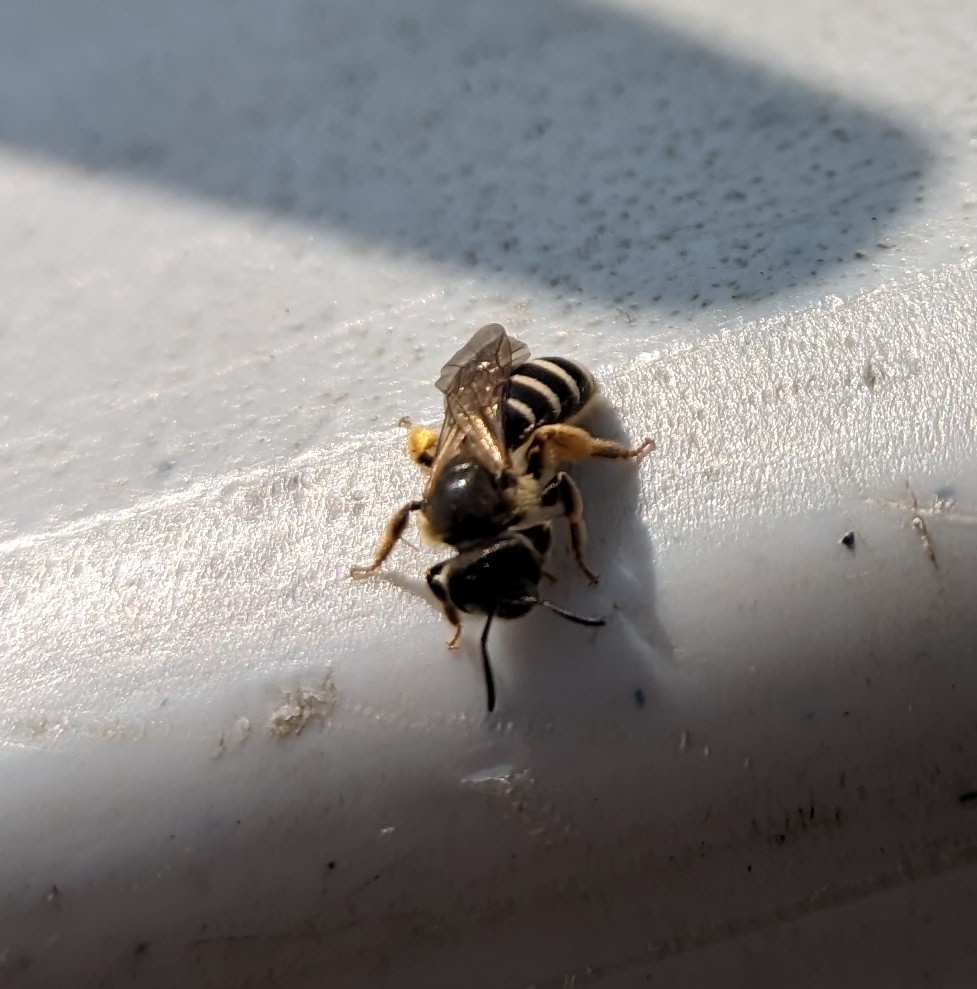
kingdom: Animalia
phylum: Arthropoda
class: Insecta
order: Hymenoptera
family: Halictidae
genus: Halictus
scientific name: Halictus rubicundus
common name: Orange-legged furrow bee
